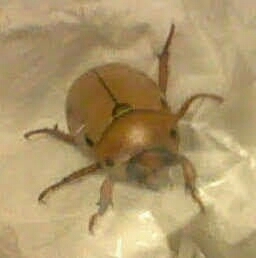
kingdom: Animalia
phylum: Arthropoda
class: Insecta
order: Coleoptera
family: Scarabaeidae
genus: Pelidnota
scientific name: Pelidnota punctata
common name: Grapevine beetle
